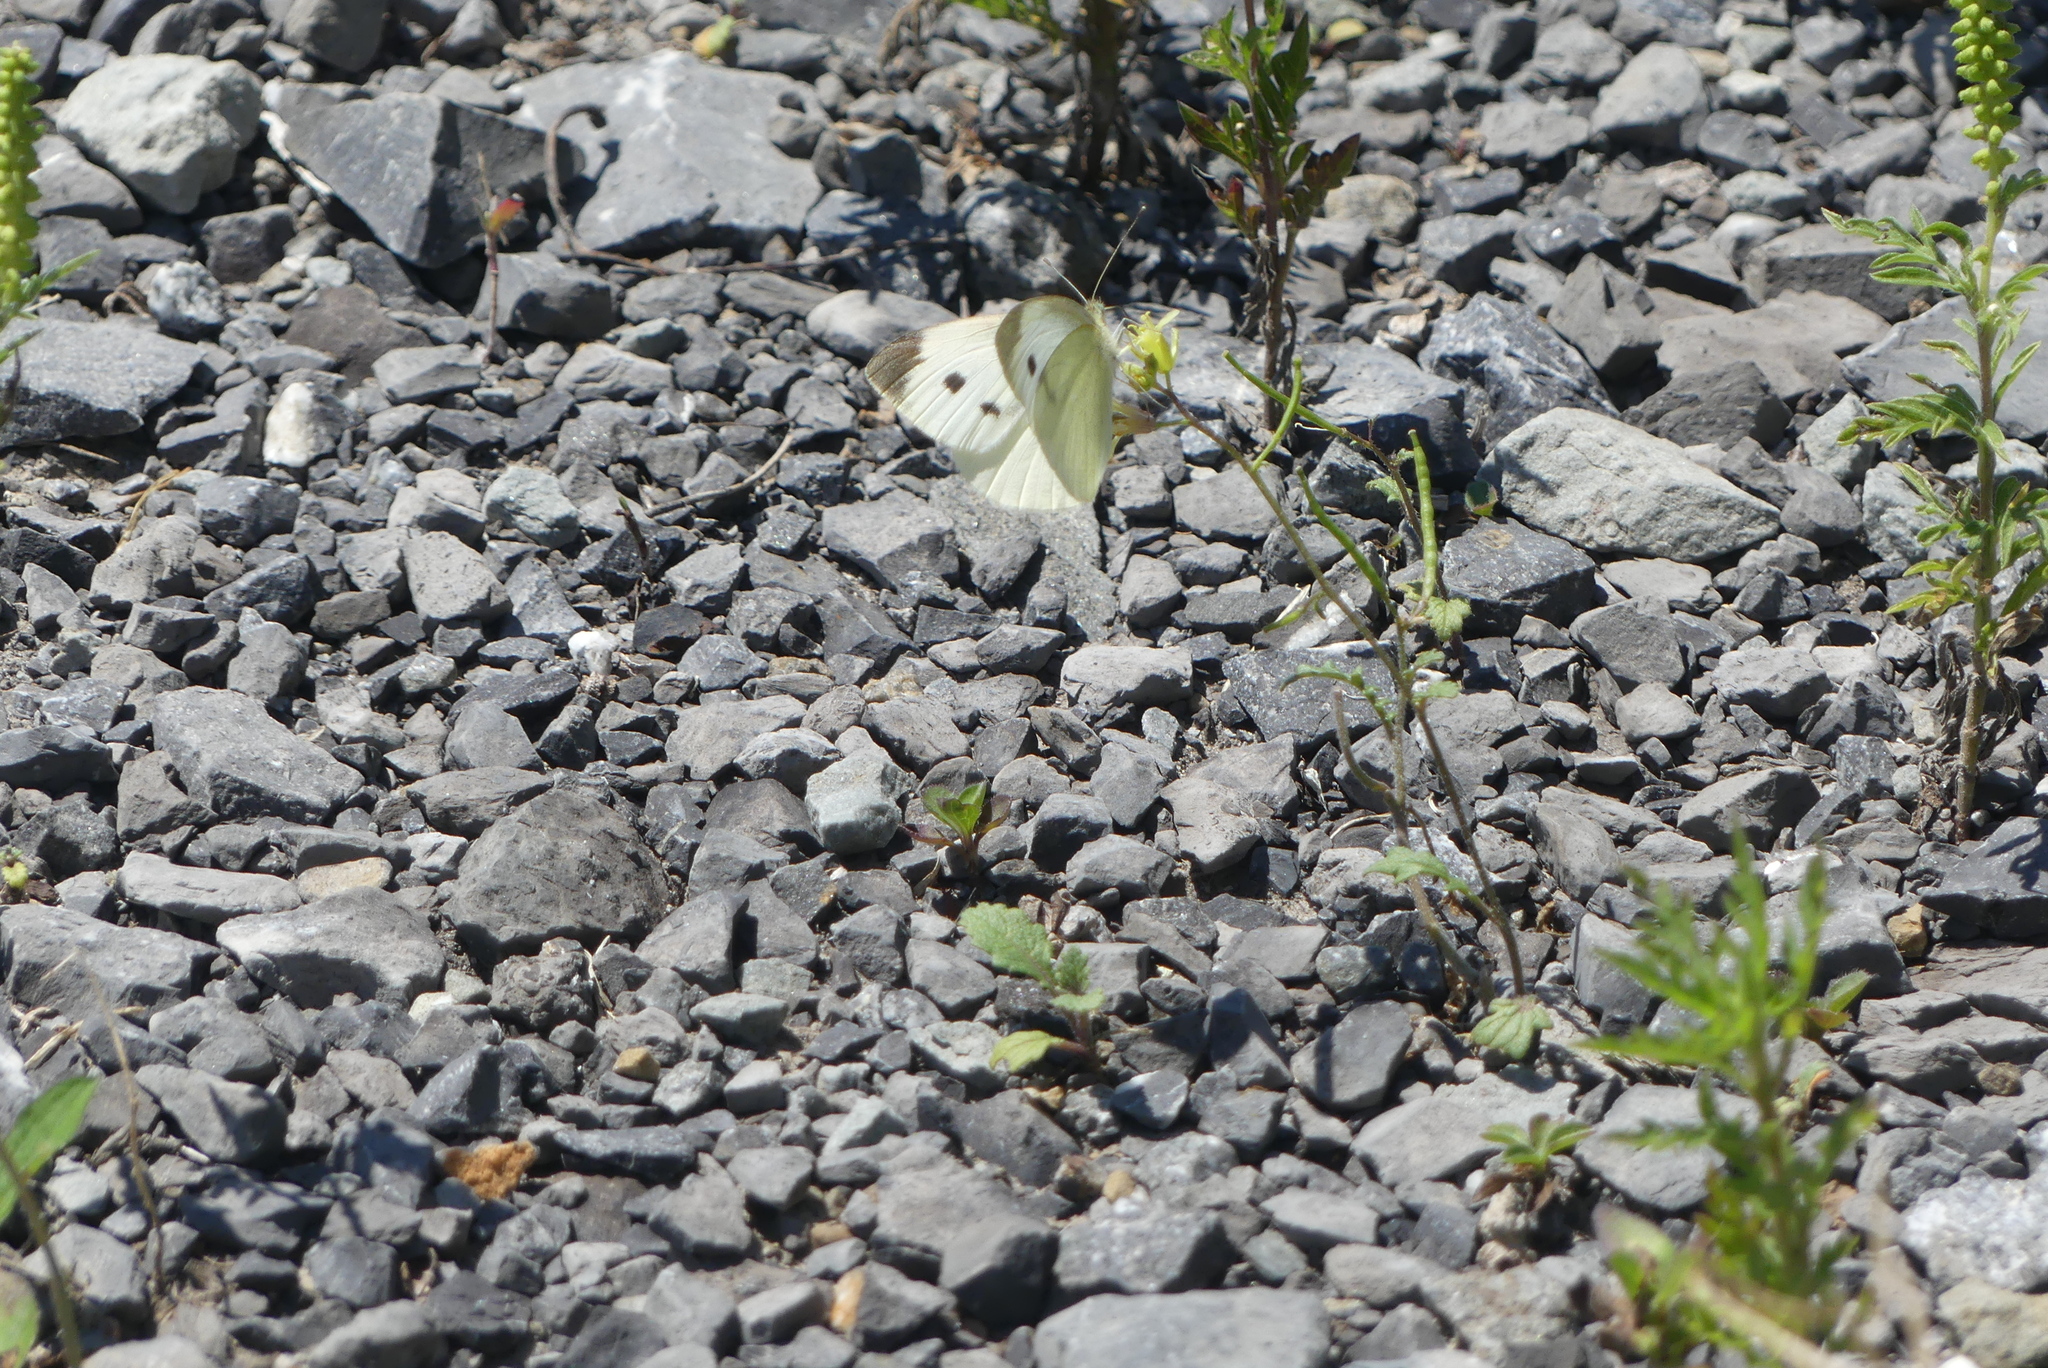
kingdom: Animalia
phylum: Arthropoda
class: Insecta
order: Lepidoptera
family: Pieridae
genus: Pieris
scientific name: Pieris rapae
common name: Small white
